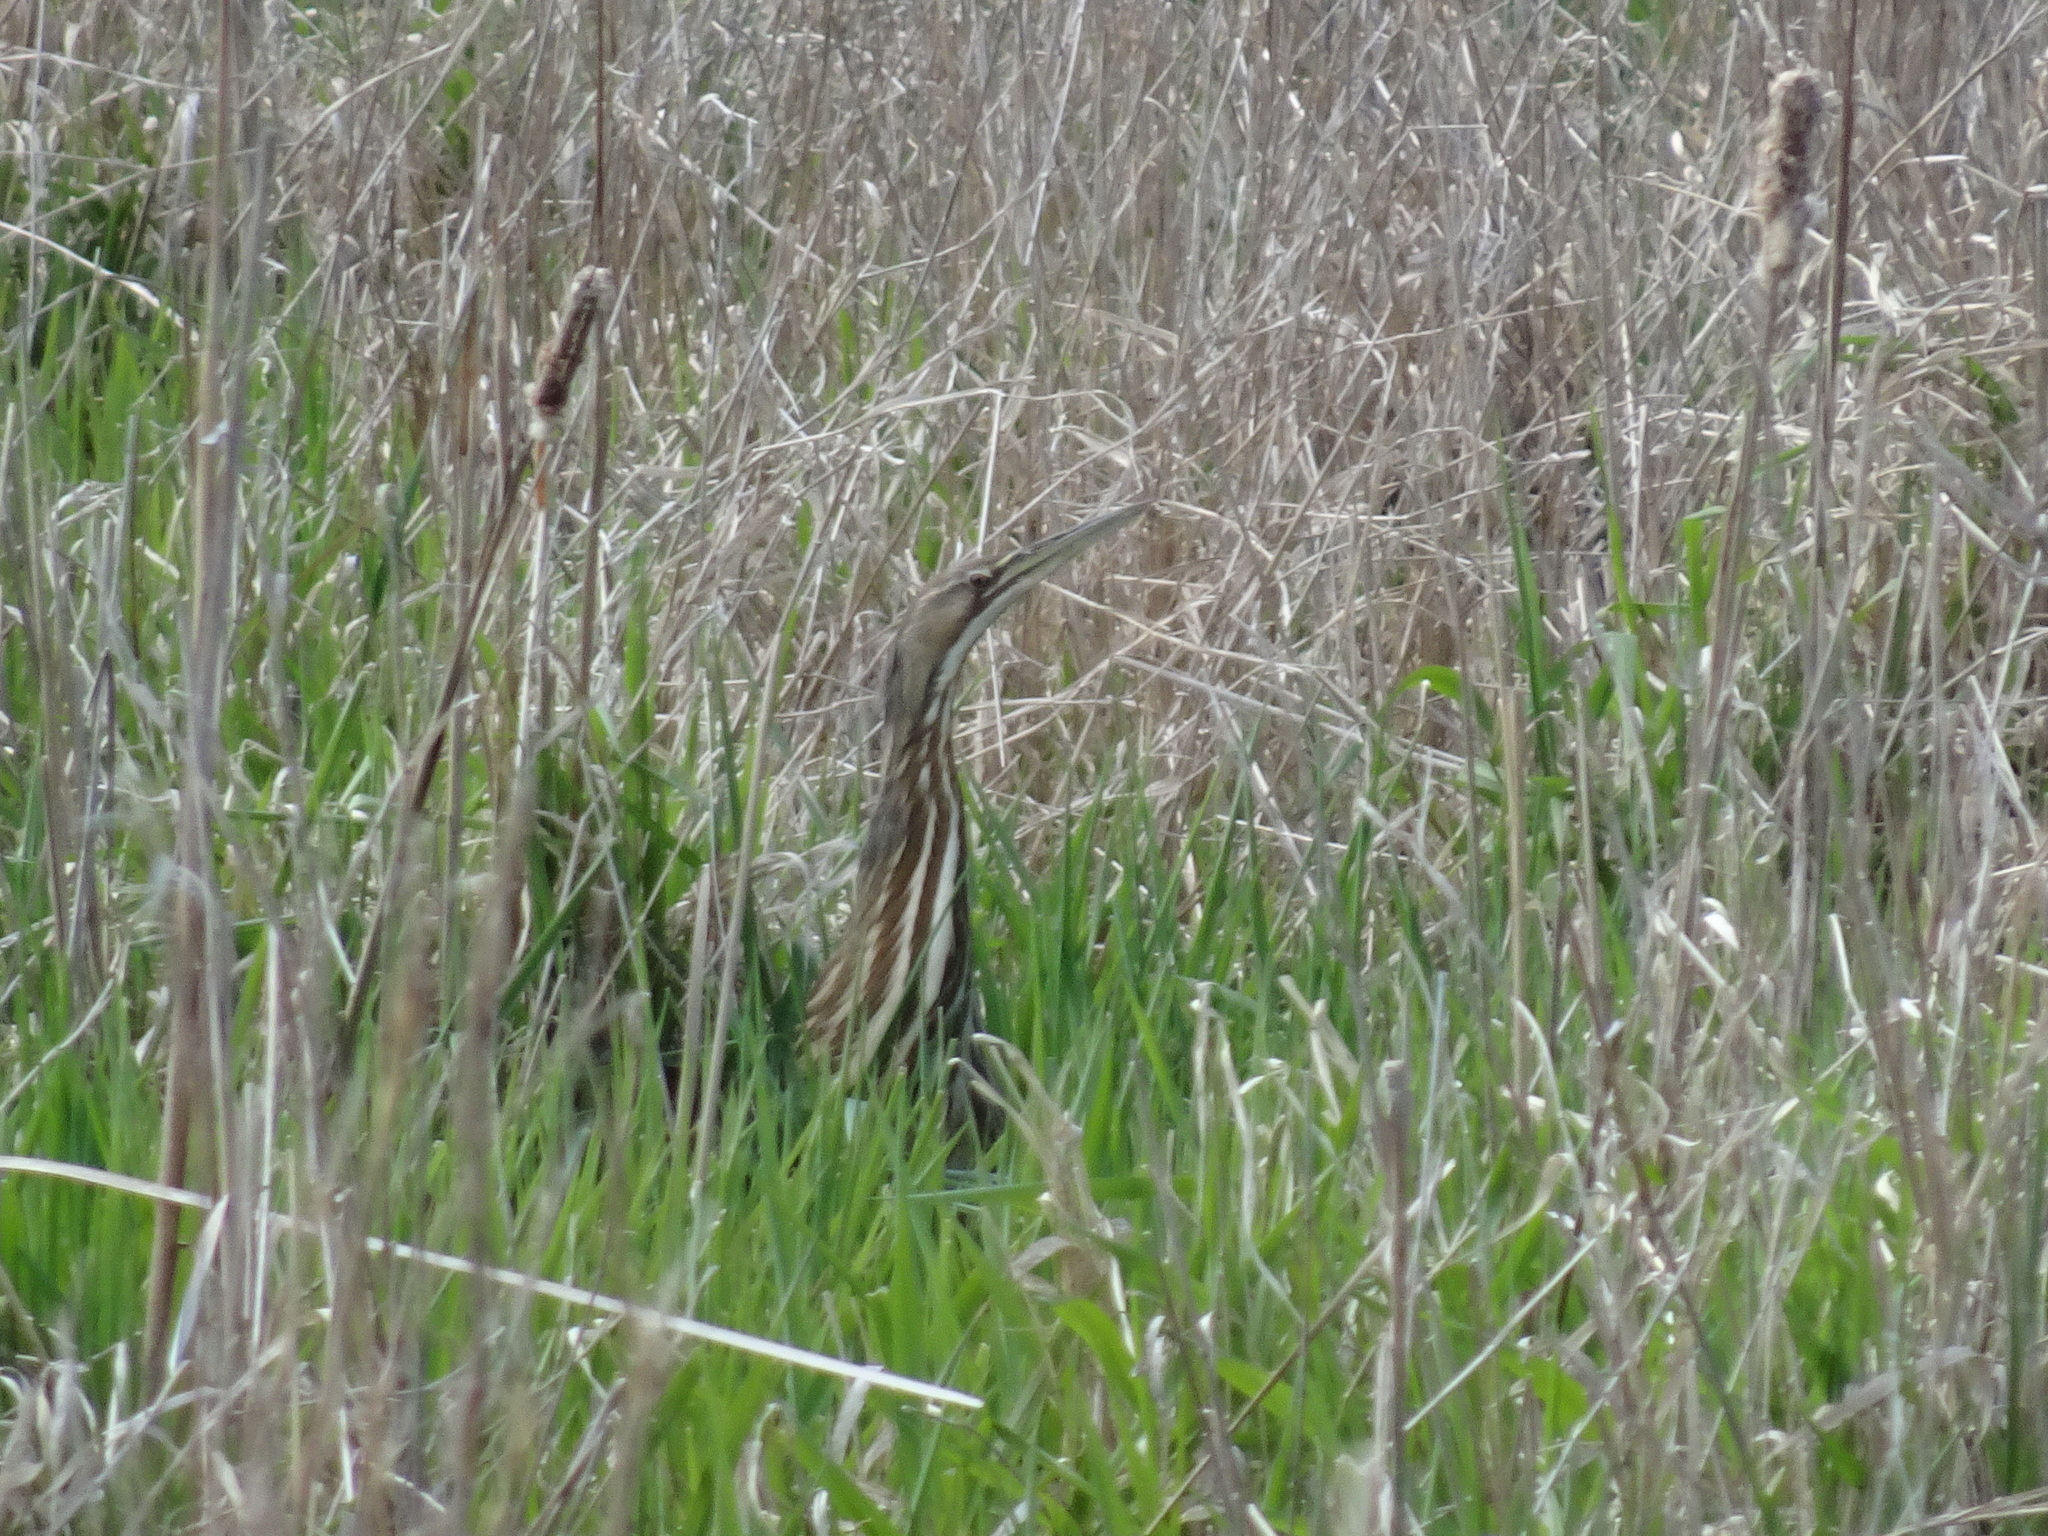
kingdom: Animalia
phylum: Chordata
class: Aves
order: Pelecaniformes
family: Ardeidae
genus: Botaurus
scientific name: Botaurus lentiginosus
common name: American bittern
